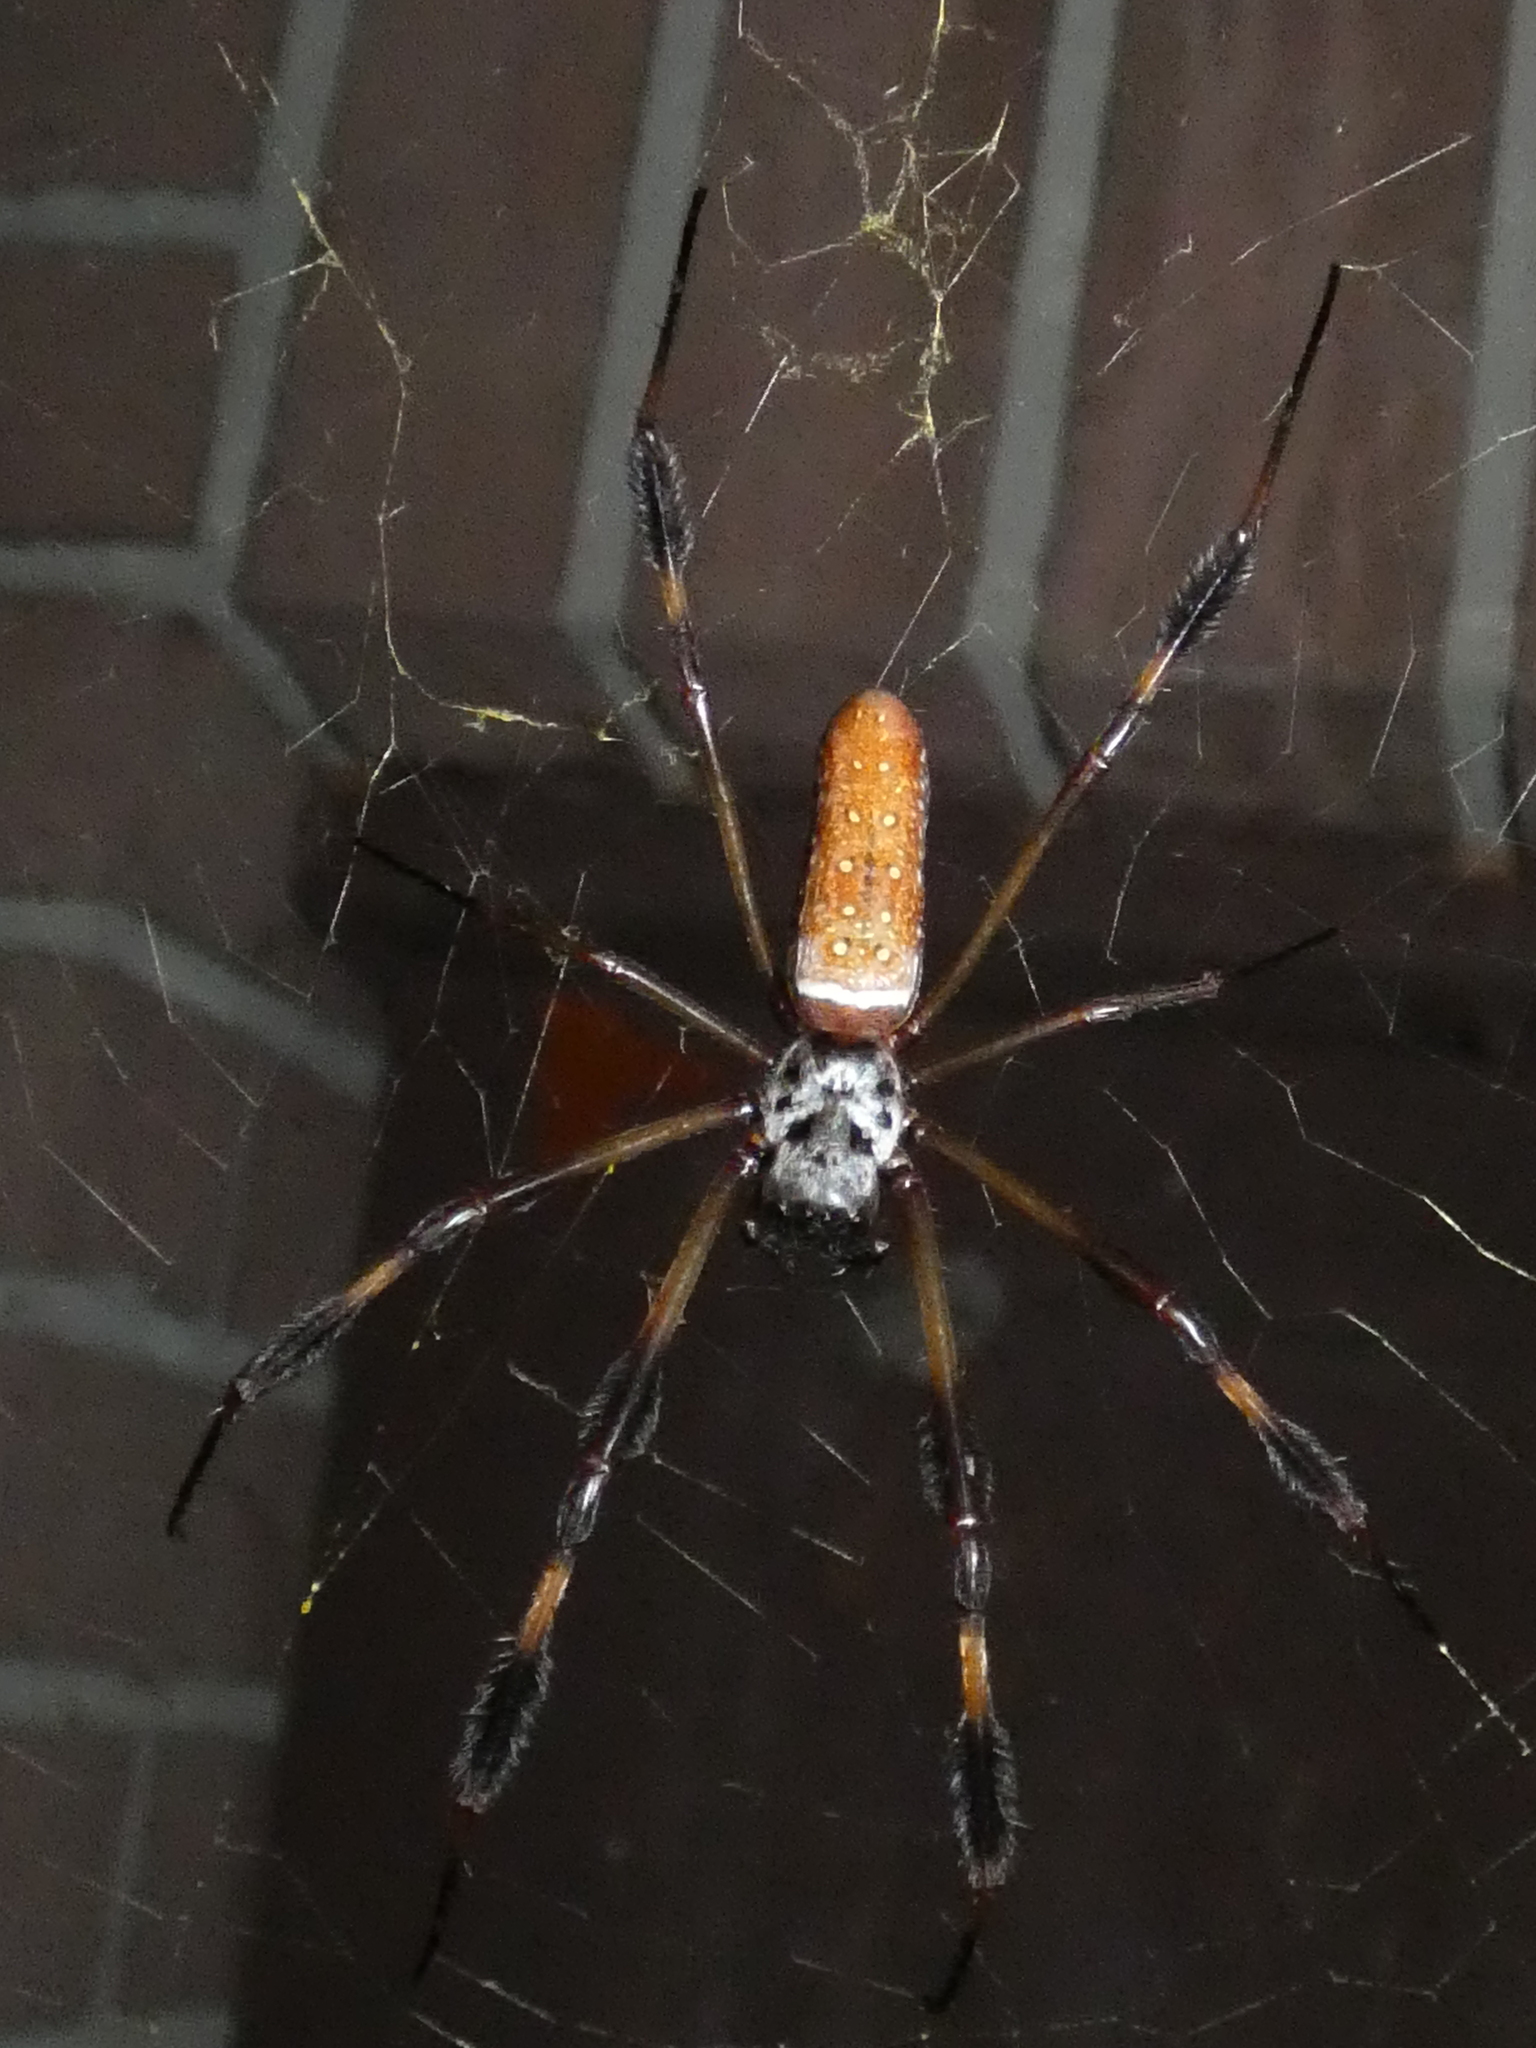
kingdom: Animalia
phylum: Arthropoda
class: Arachnida
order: Araneae
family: Araneidae
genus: Trichonephila
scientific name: Trichonephila clavipes
